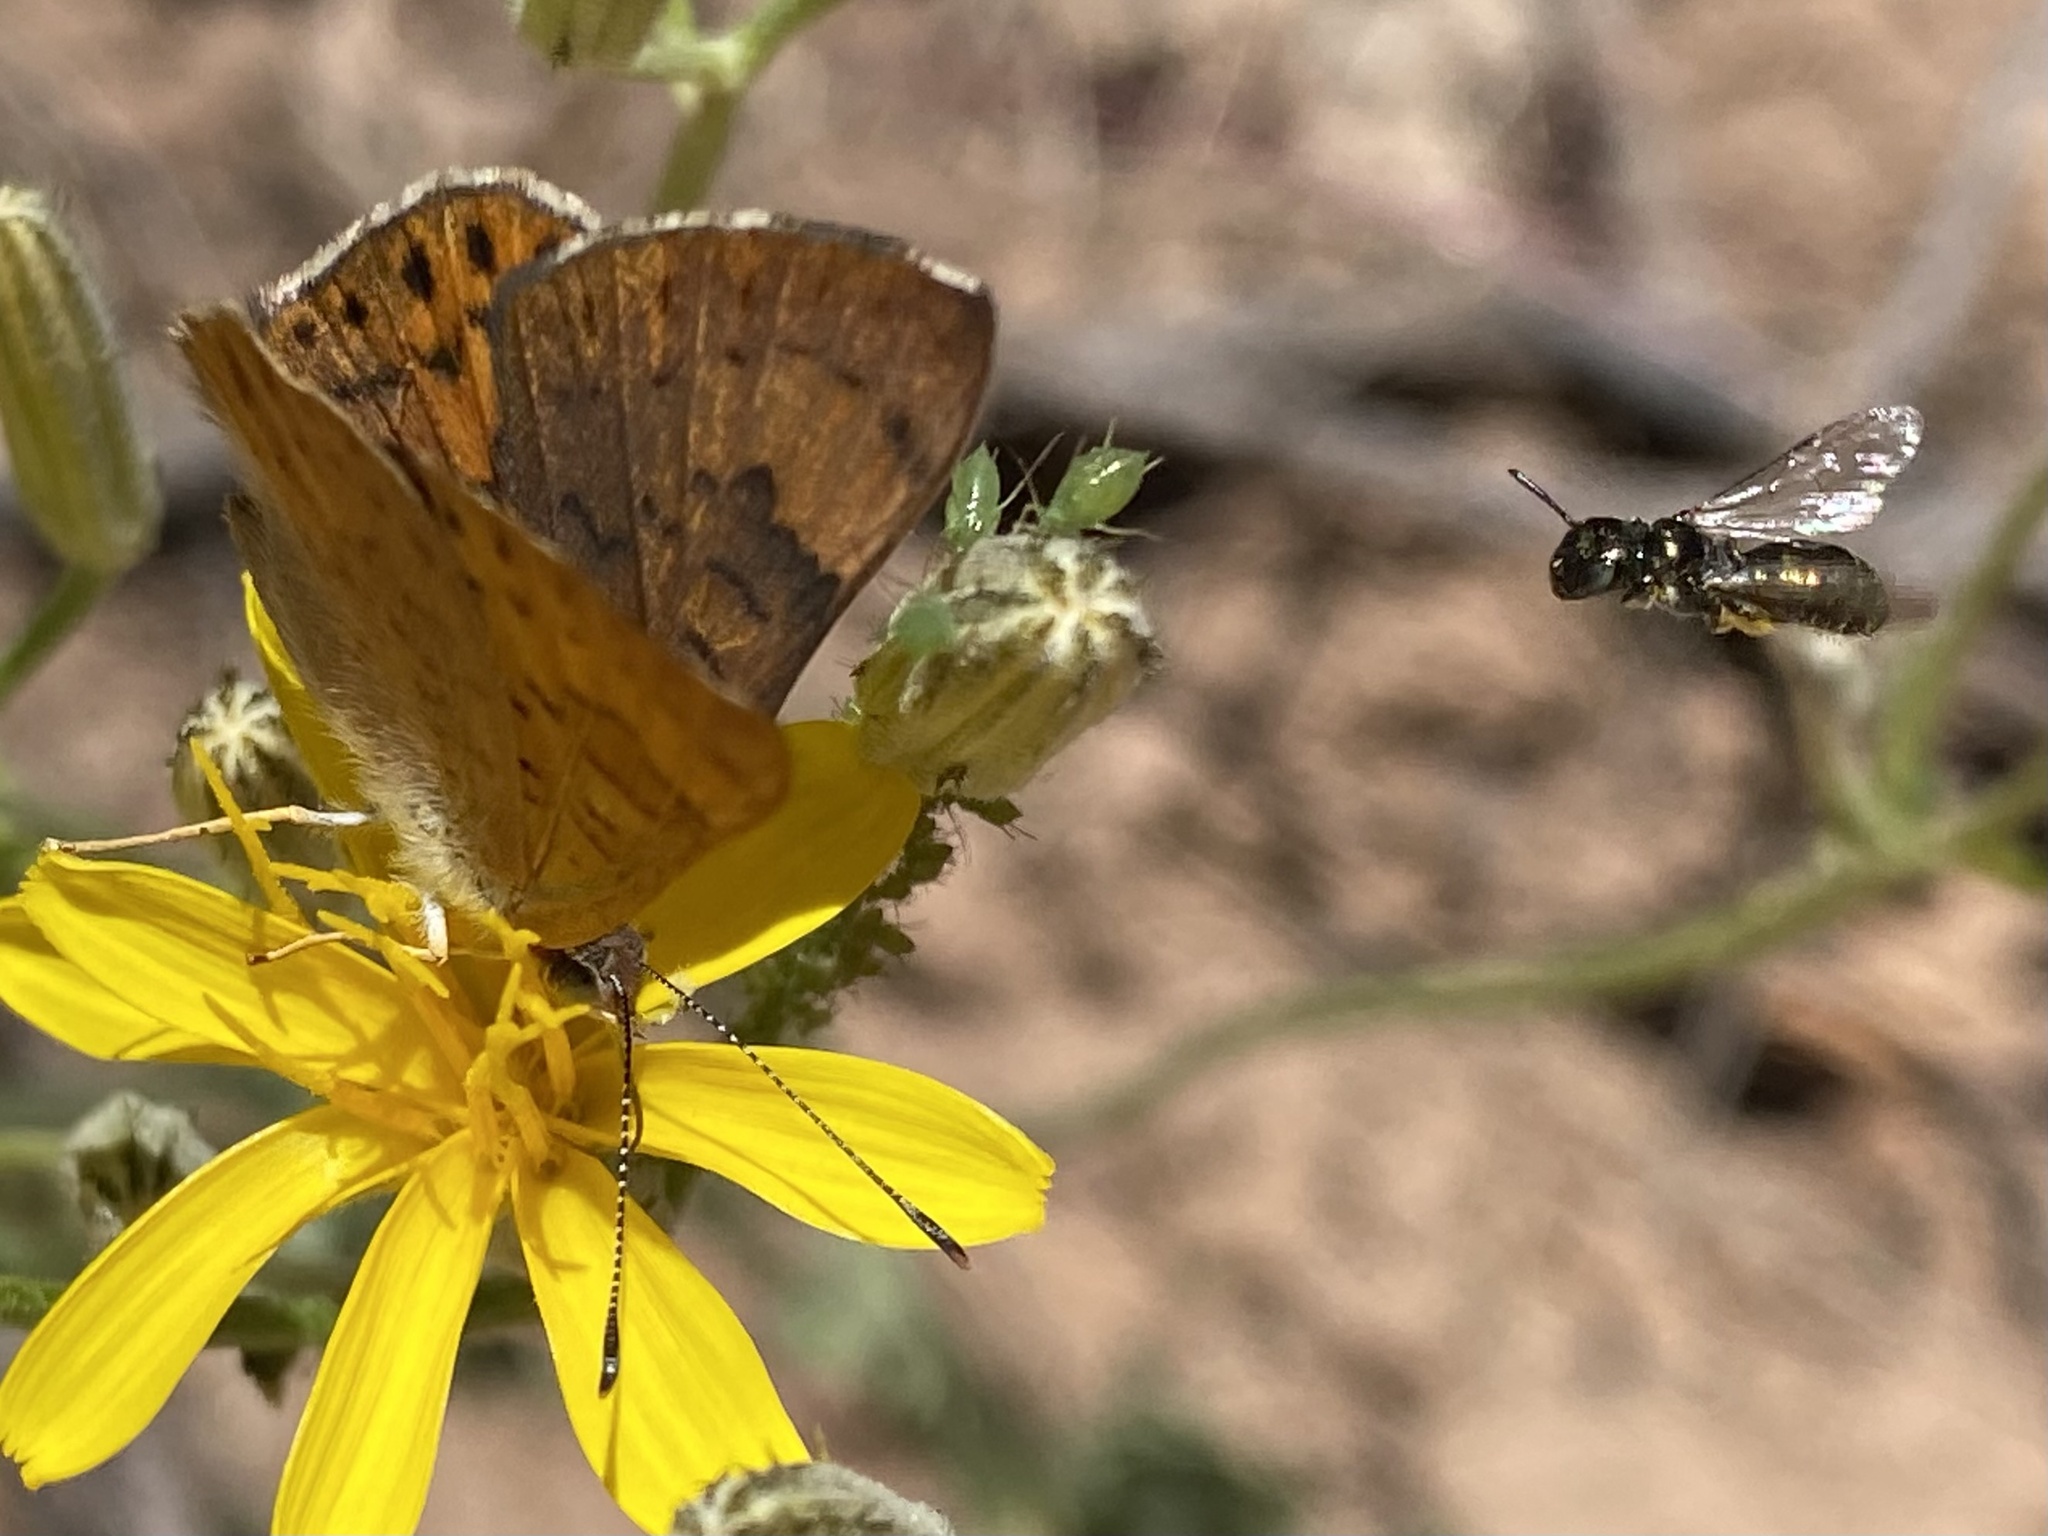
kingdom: Animalia
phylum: Arthropoda
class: Insecta
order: Hymenoptera
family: Apidae
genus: Zadontomerus
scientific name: Zadontomerus
